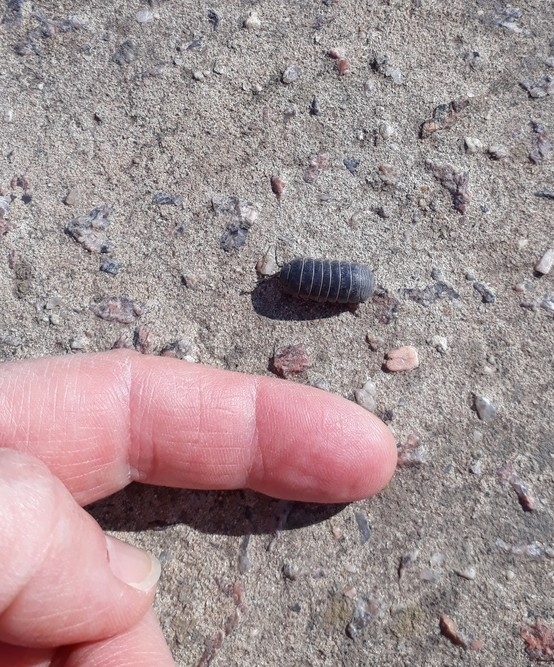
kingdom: Animalia
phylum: Arthropoda
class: Malacostraca
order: Isopoda
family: Armadillidiidae
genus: Armadillidium
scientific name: Armadillidium vulgare
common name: Common pill woodlouse
